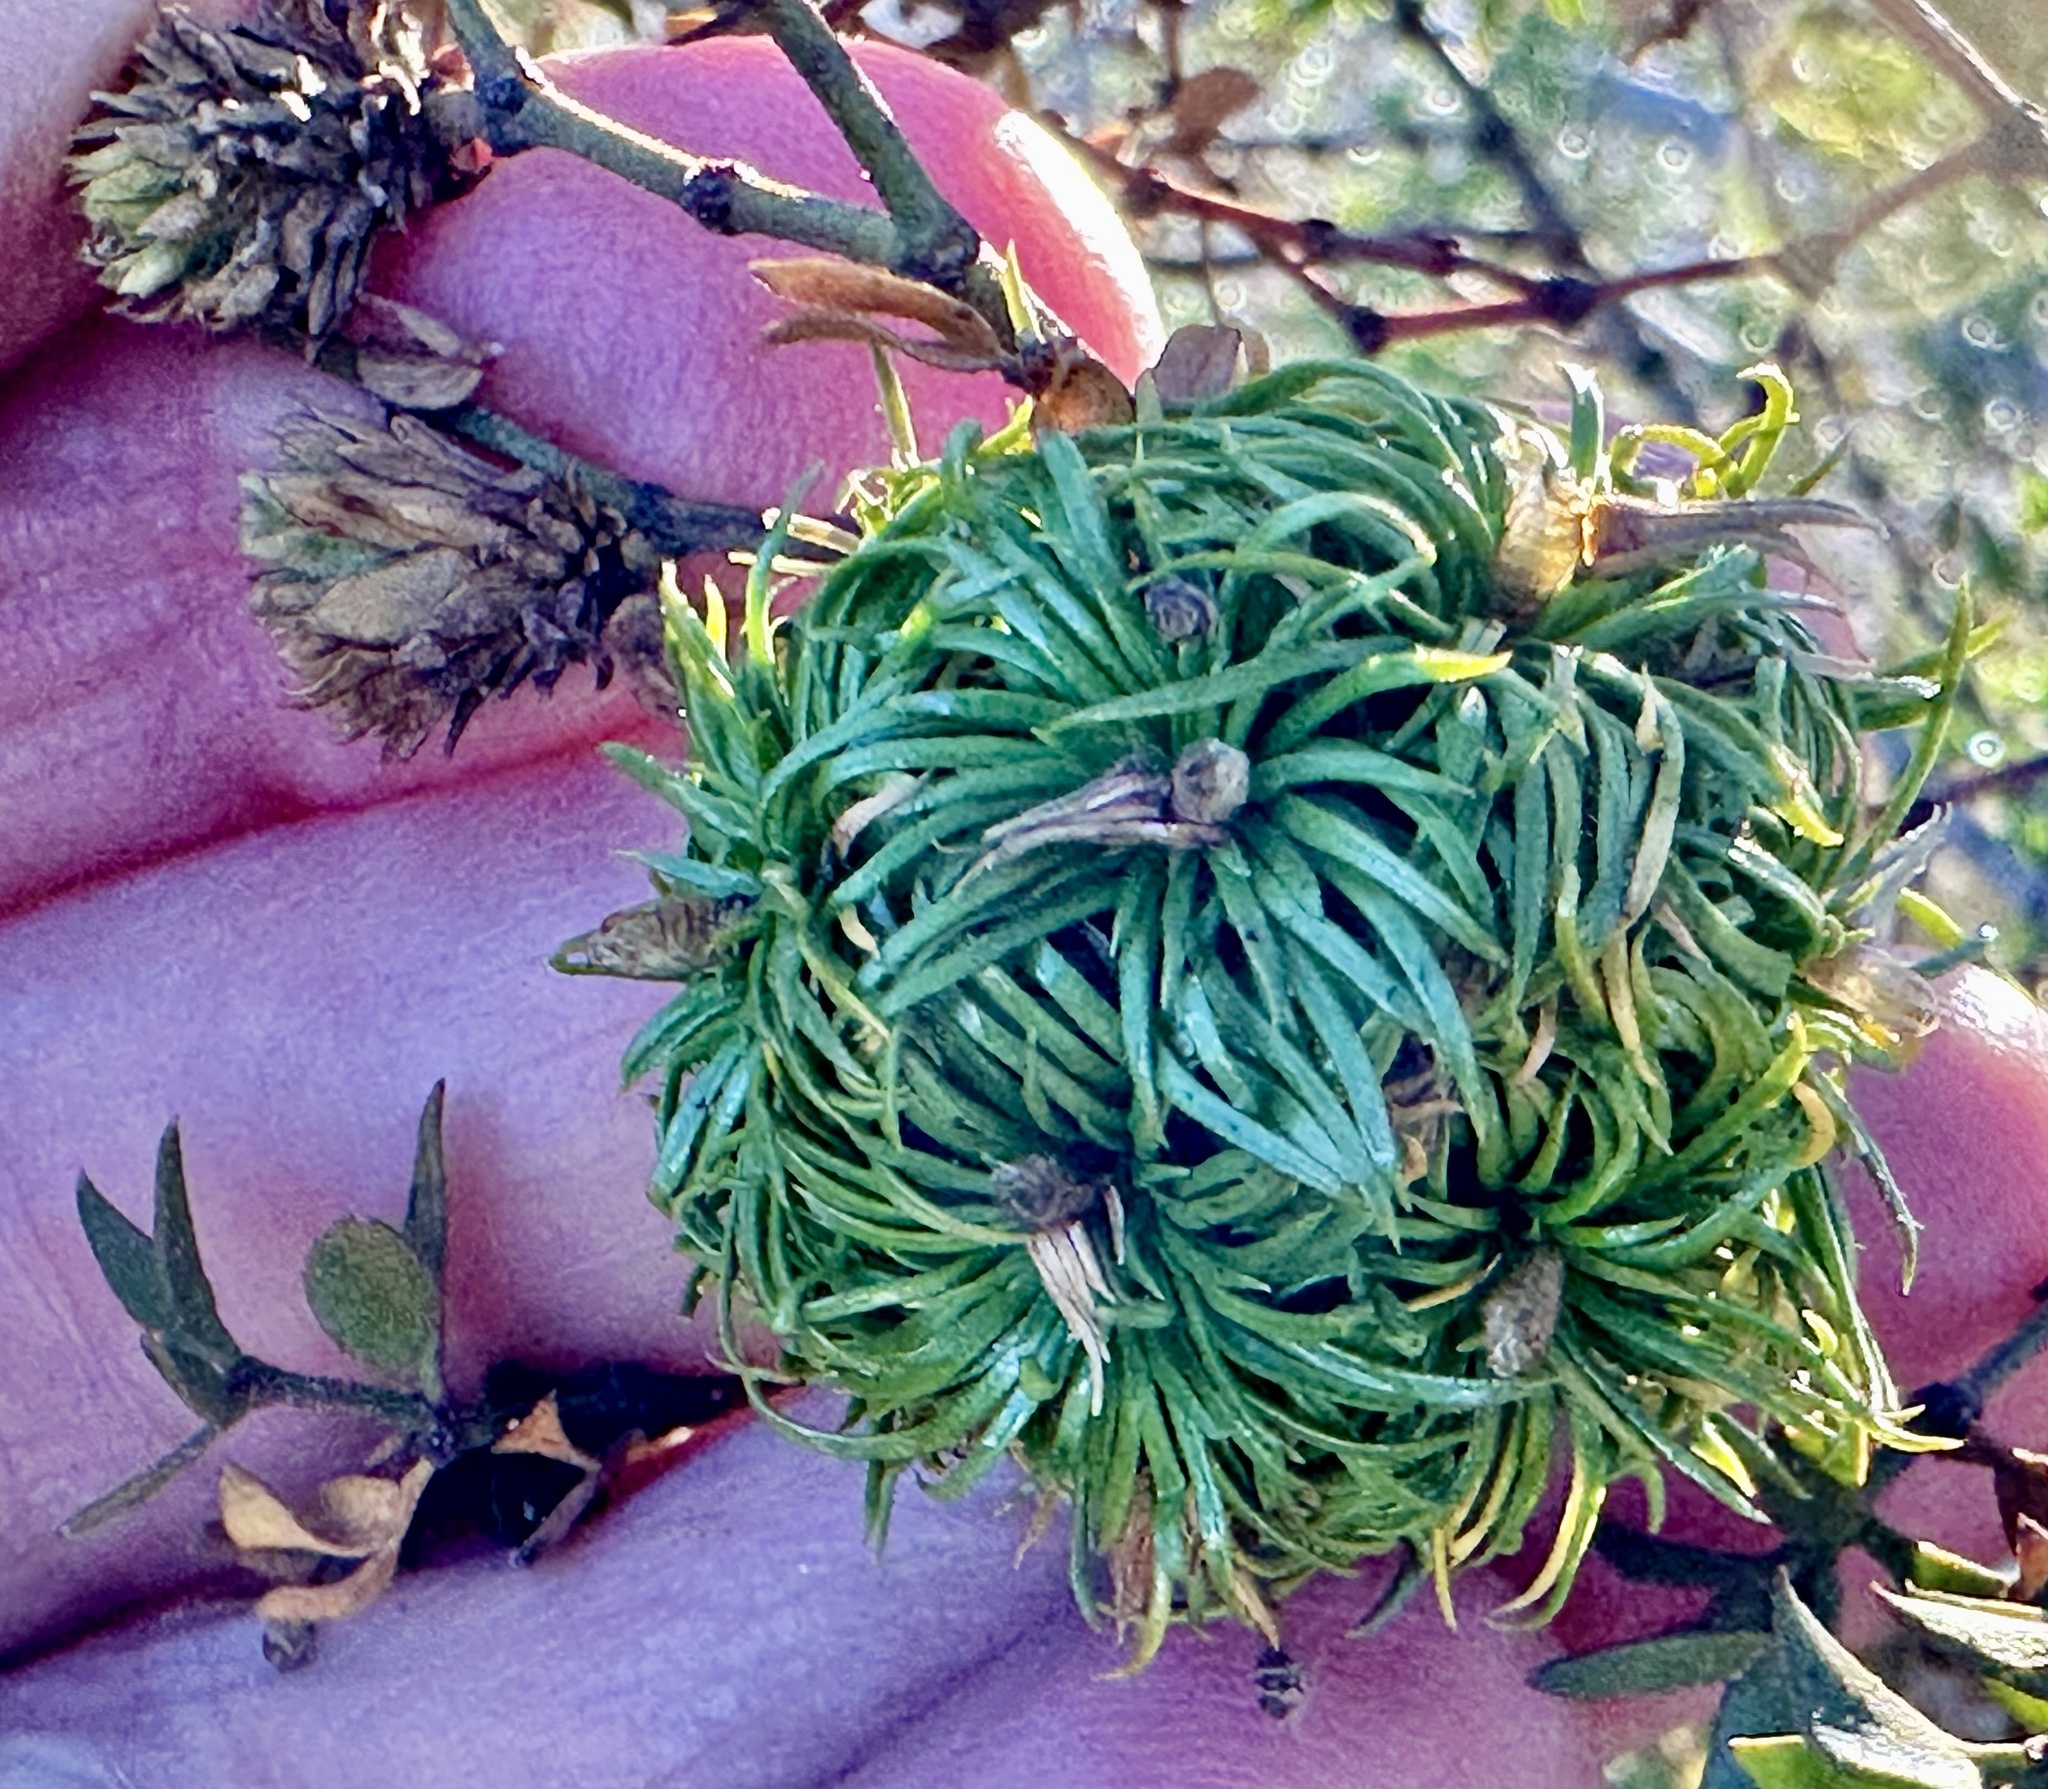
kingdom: Animalia
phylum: Arthropoda
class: Insecta
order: Diptera
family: Cecidomyiidae
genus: Asphondylia
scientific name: Asphondylia auripila
